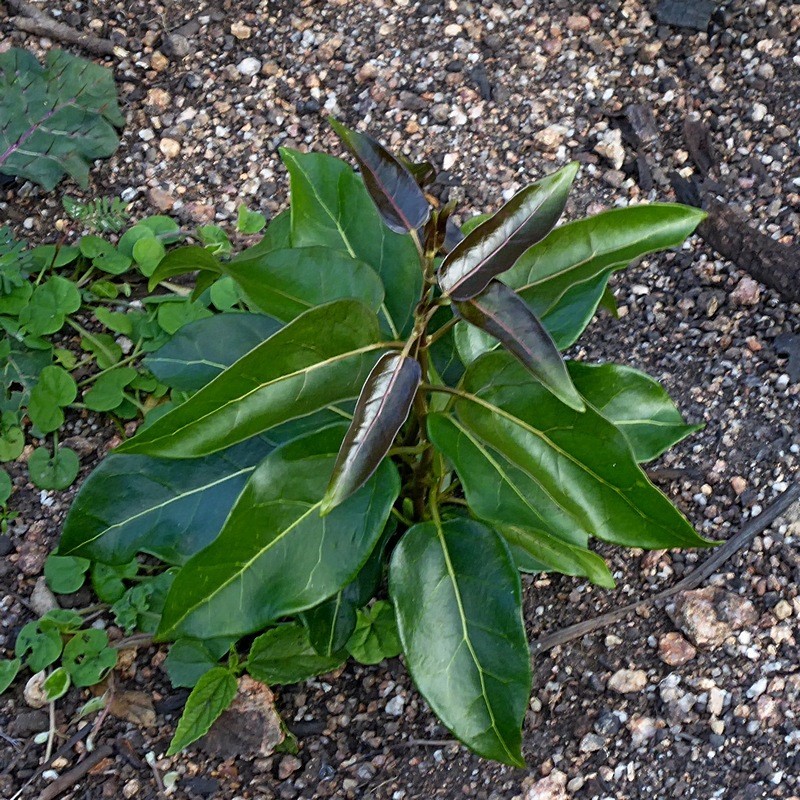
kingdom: Plantae
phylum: Tracheophyta
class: Magnoliopsida
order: Gentianales
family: Apocynaceae
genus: Leichhardtia
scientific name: Leichhardtia rostrata
